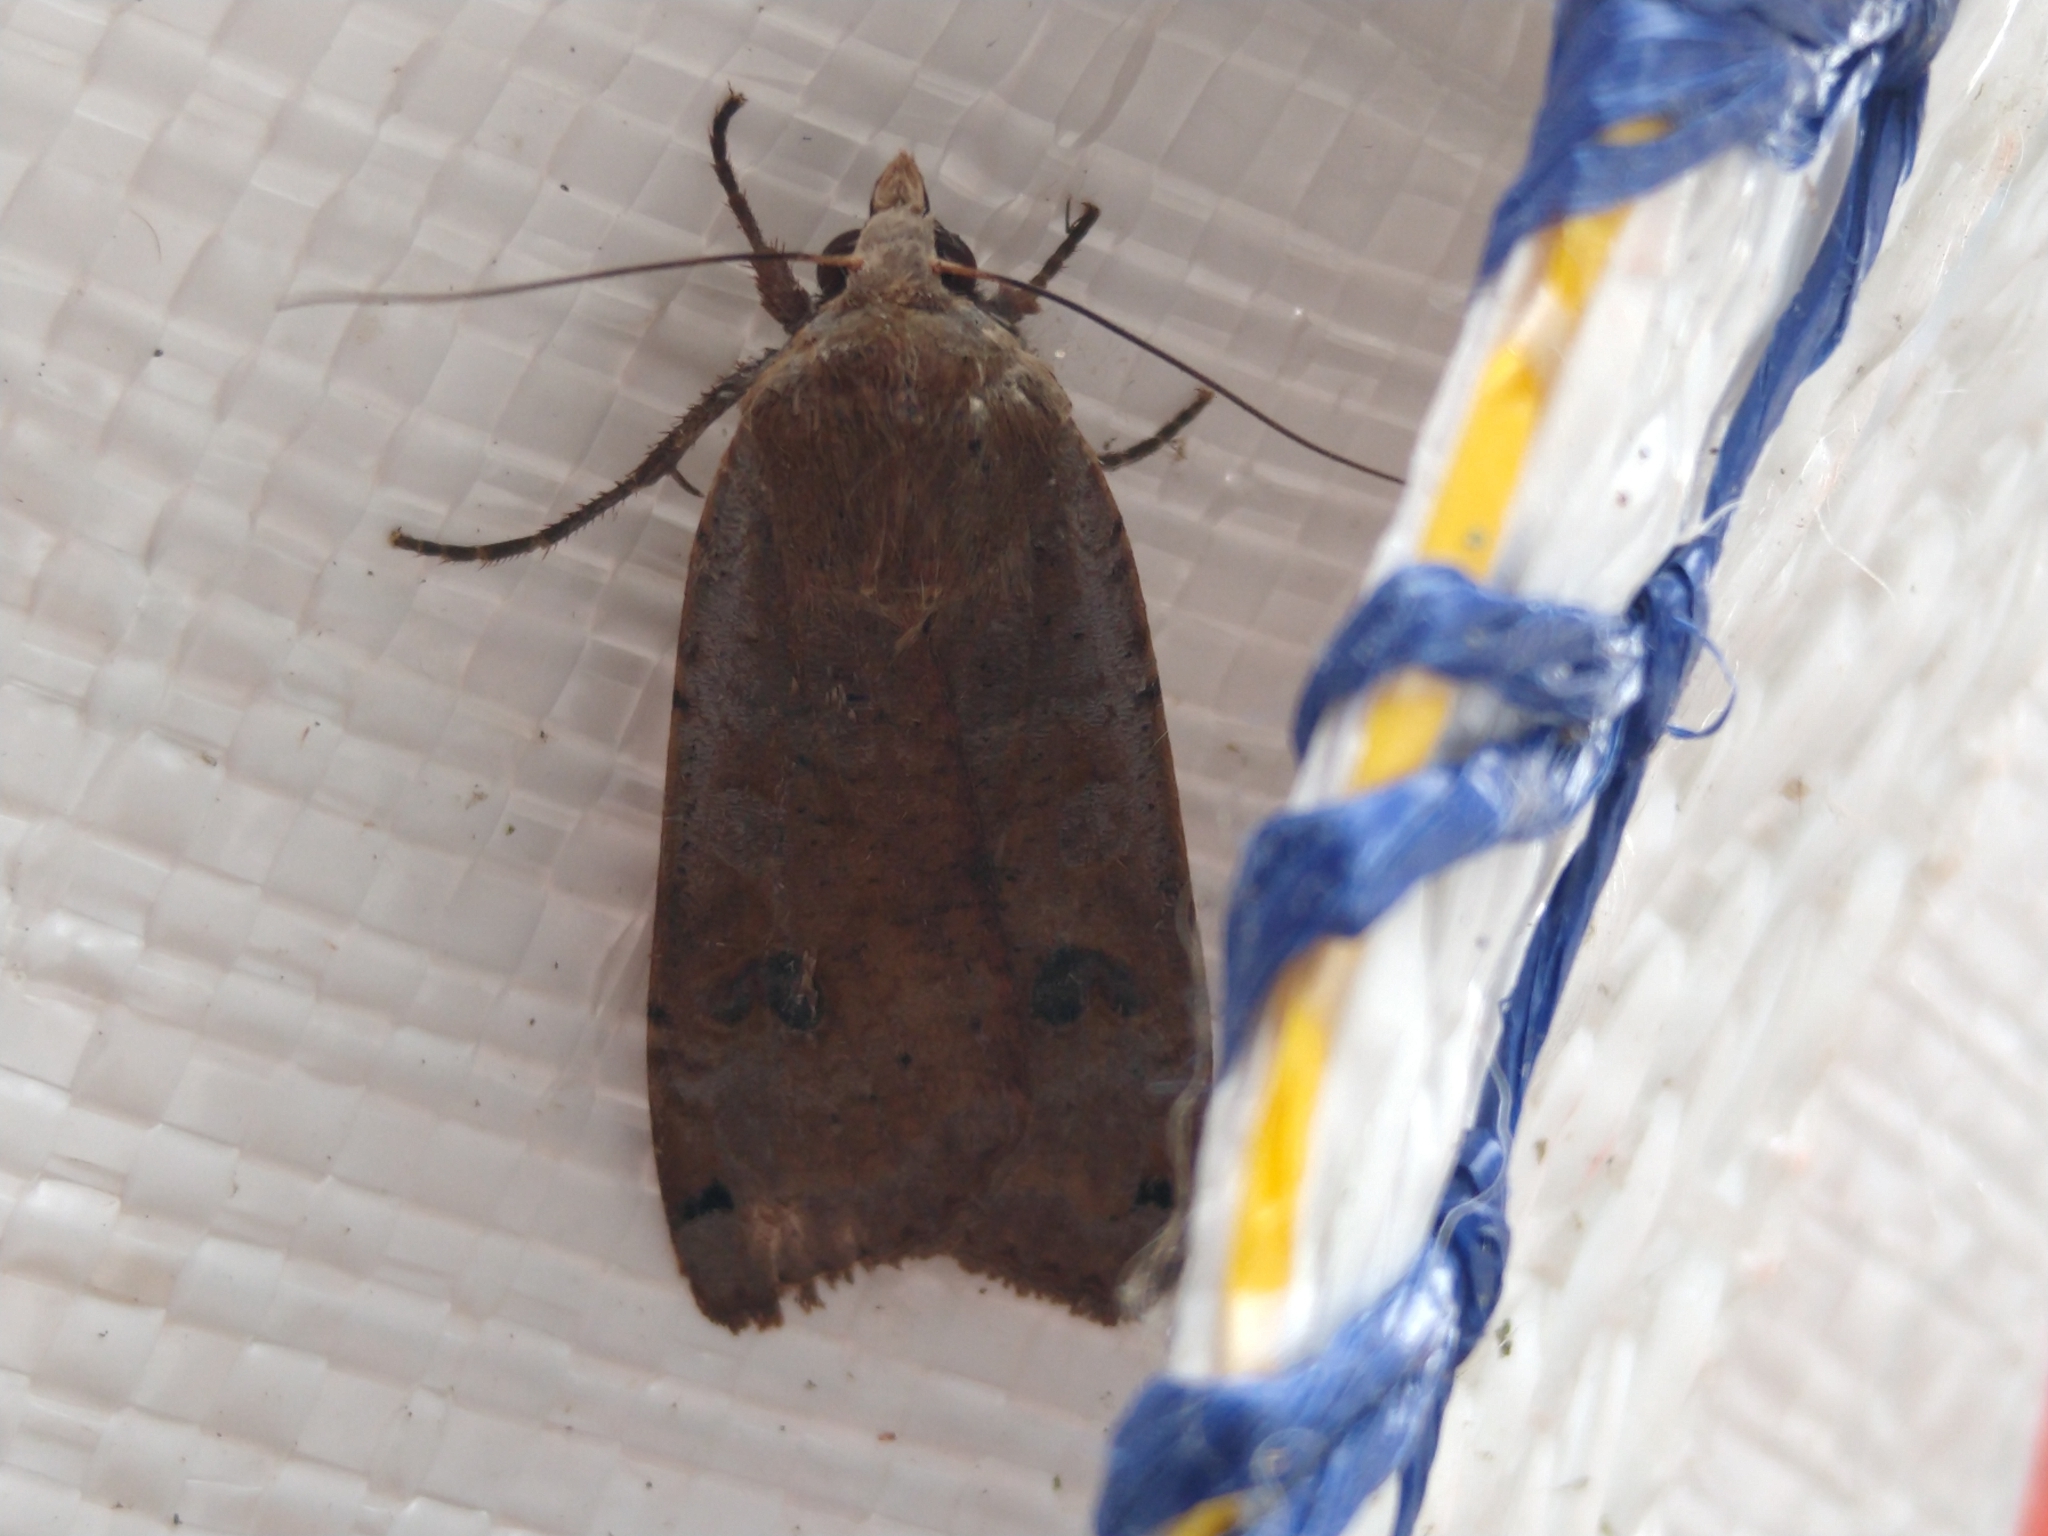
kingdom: Animalia
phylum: Arthropoda
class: Insecta
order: Lepidoptera
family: Noctuidae
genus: Noctua
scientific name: Noctua pronuba
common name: Large yellow underwing
